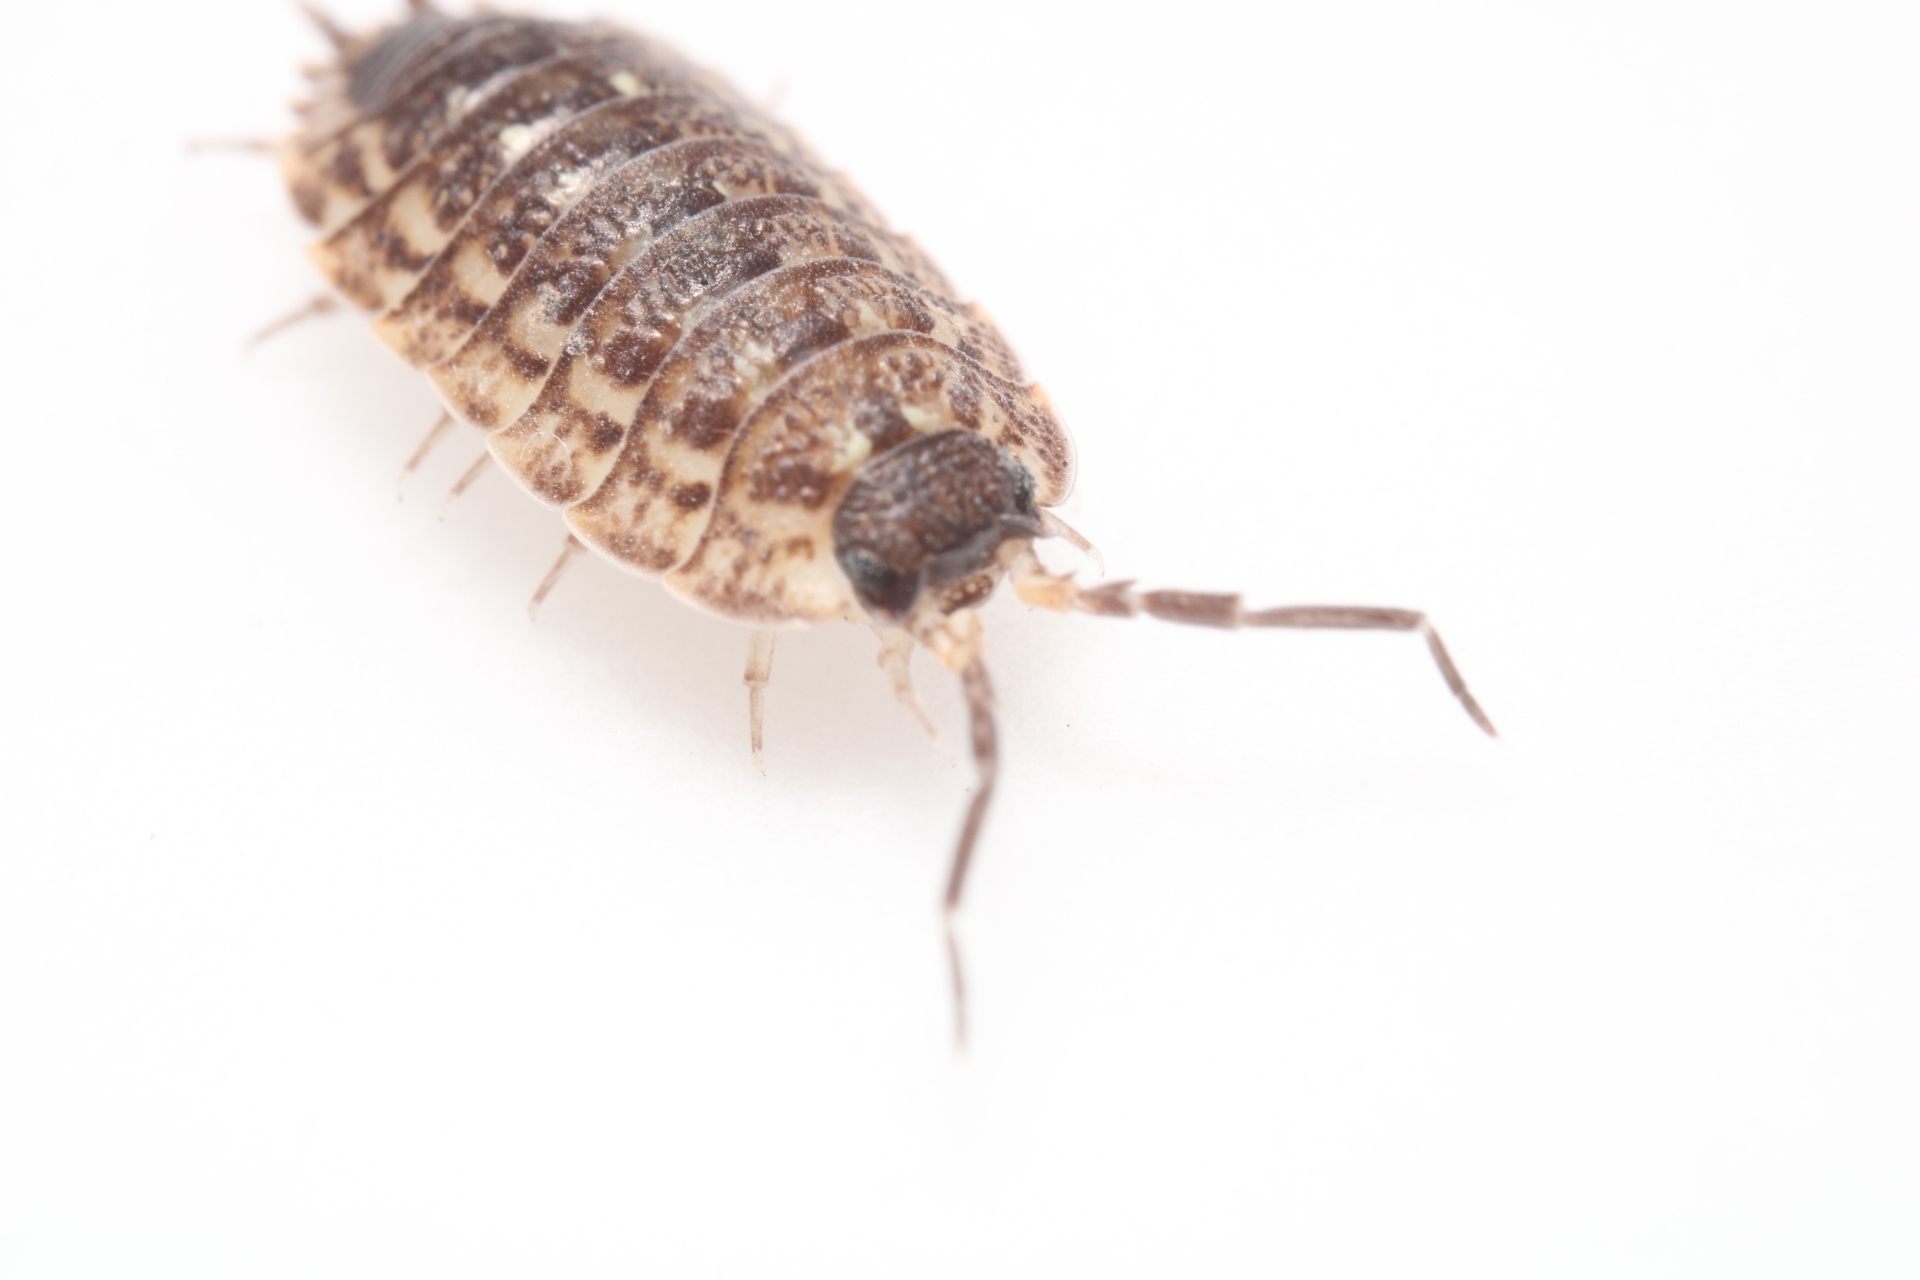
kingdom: Animalia
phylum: Arthropoda
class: Malacostraca
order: Isopoda
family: Trachelipodidae
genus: Trachelipus
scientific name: Trachelipus rathkii
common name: Isopod
